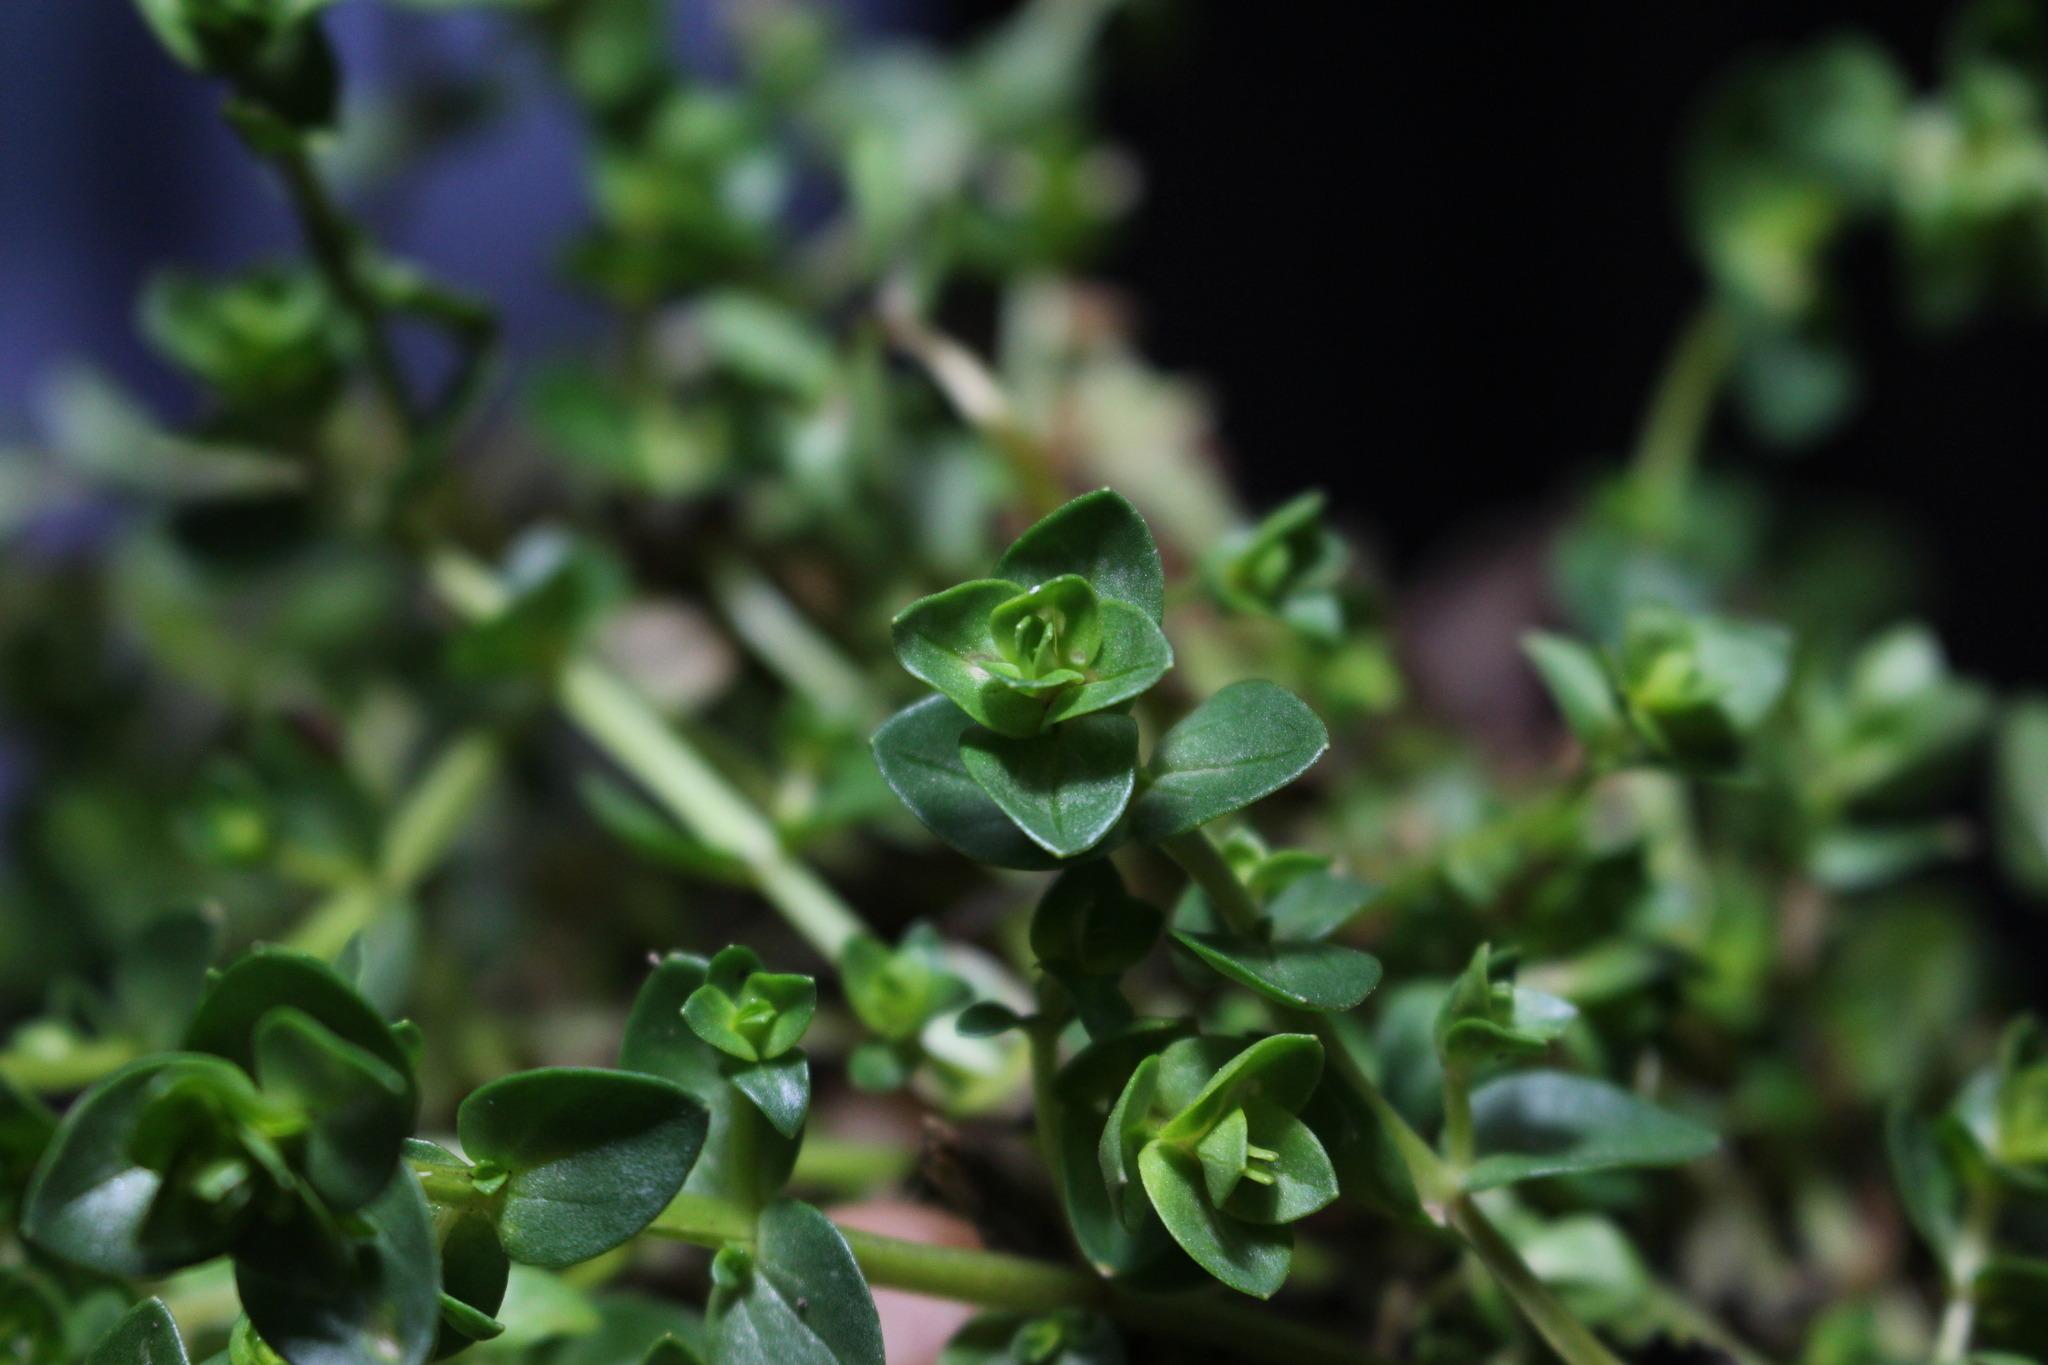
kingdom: Plantae
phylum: Tracheophyta
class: Magnoliopsida
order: Ericales
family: Primulaceae
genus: Lysimachia
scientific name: Lysimachia arvensis
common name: Scarlet pimpernel
